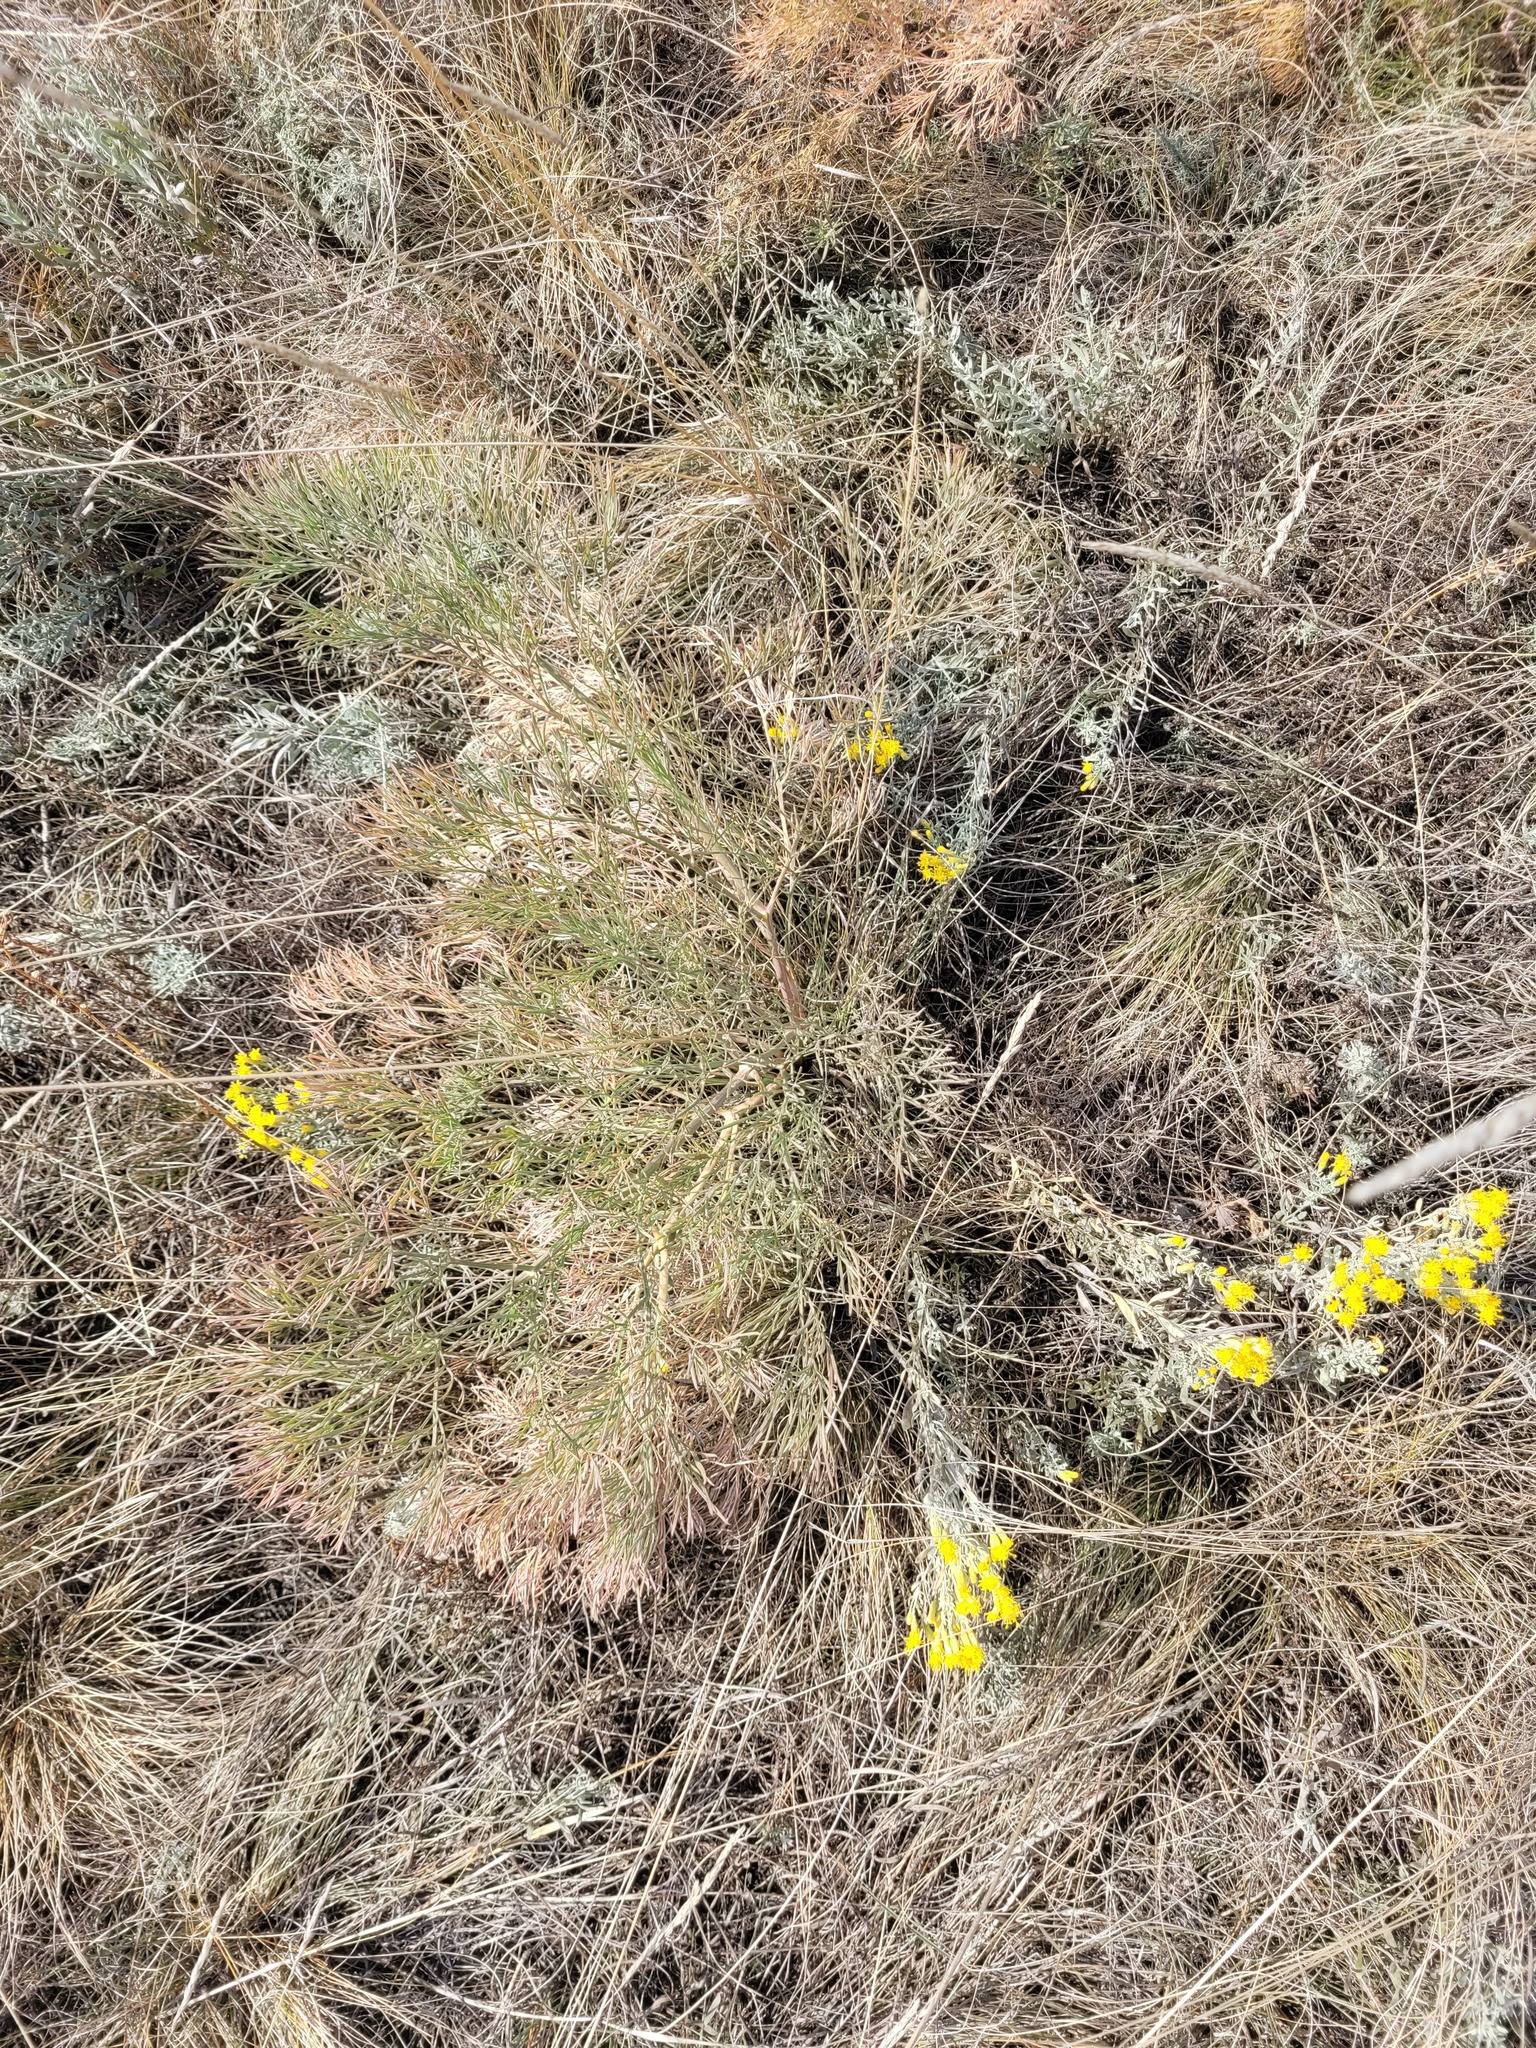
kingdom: Plantae
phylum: Tracheophyta
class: Magnoliopsida
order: Apiales
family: Apiaceae
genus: Seseli
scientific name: Seseli arenarium
